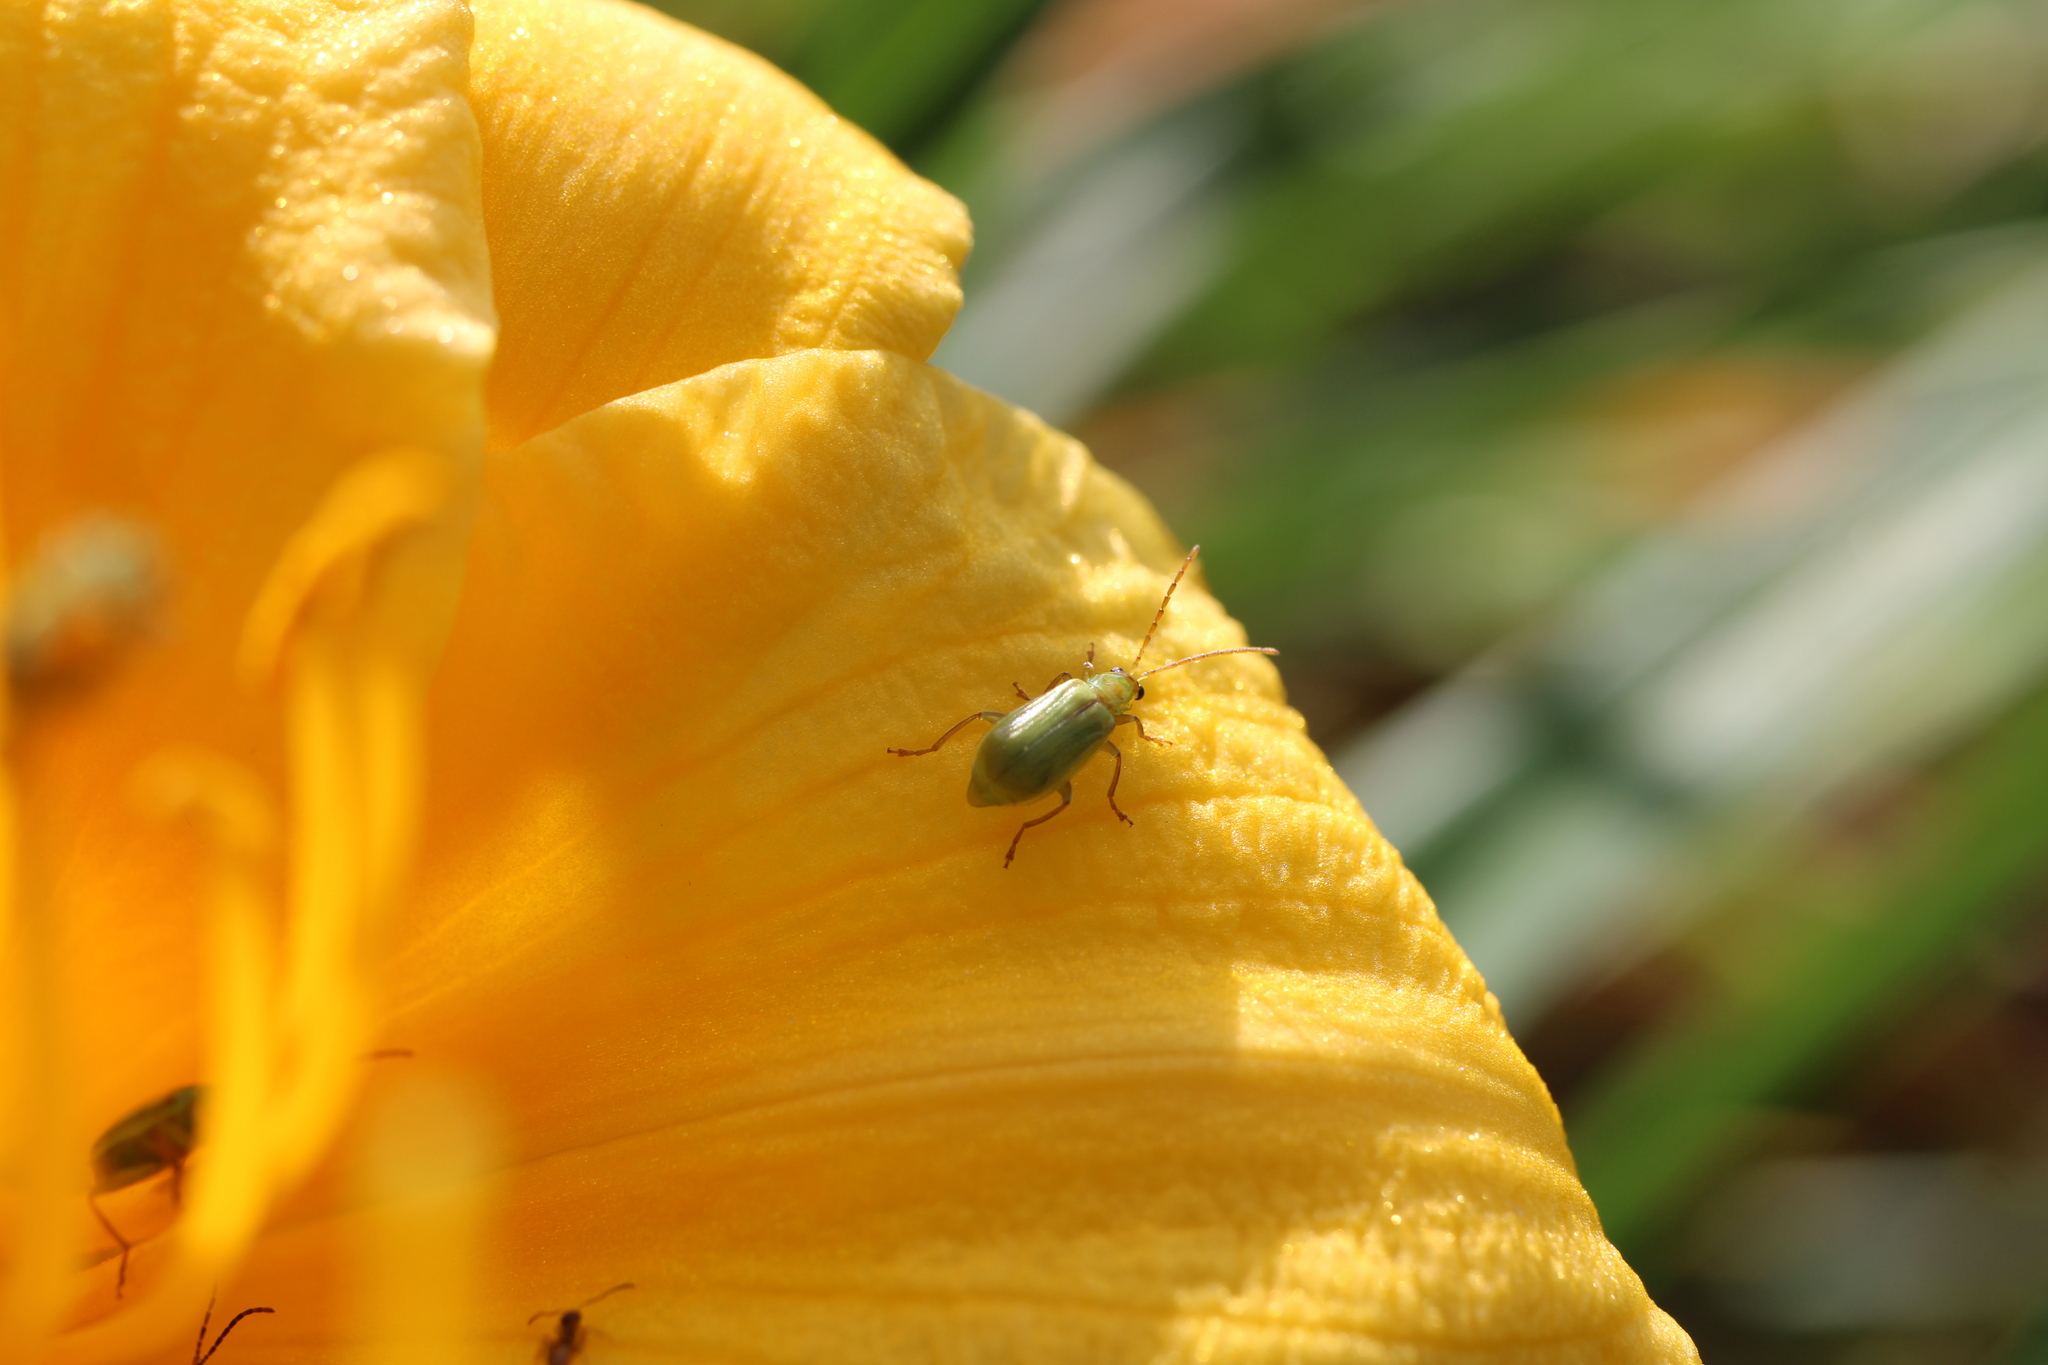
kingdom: Animalia
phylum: Arthropoda
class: Insecta
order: Coleoptera
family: Chrysomelidae
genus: Diabrotica
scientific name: Diabrotica barberi
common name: Northern corn rootworm
